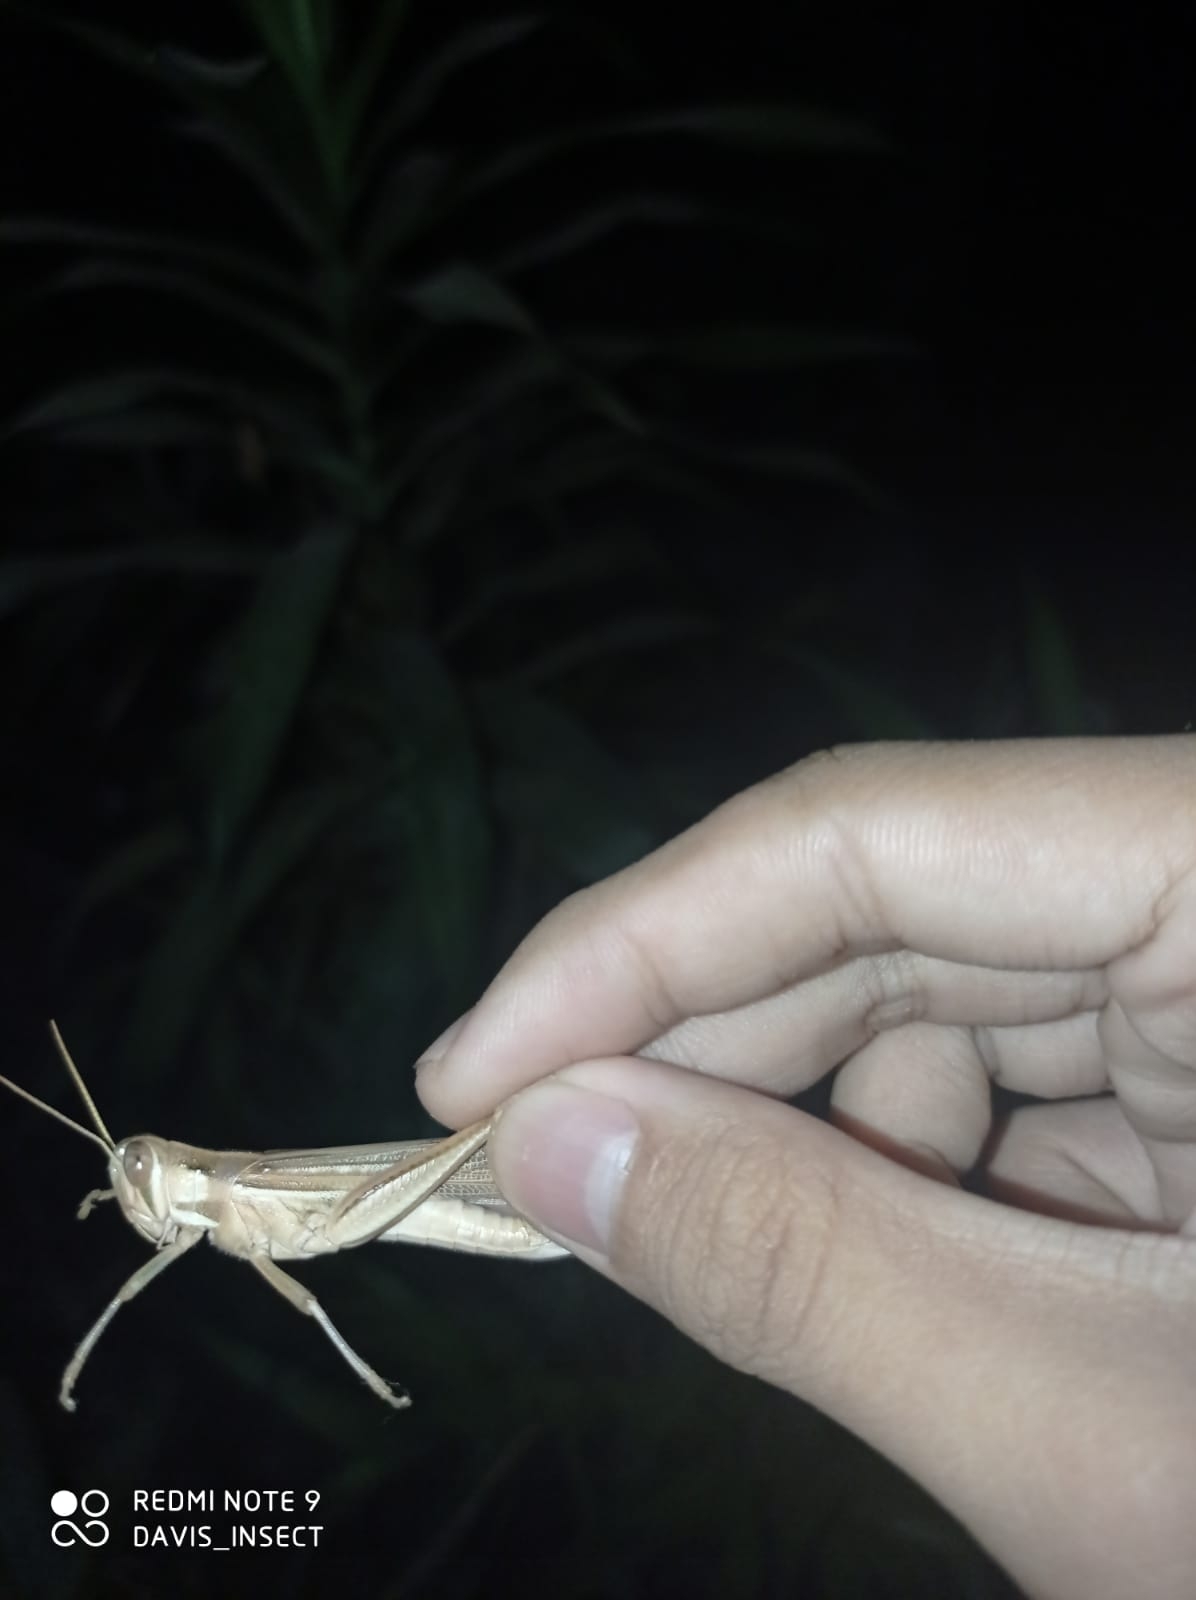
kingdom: Animalia
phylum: Arthropoda
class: Insecta
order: Orthoptera
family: Acrididae
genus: Austracris
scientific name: Austracris guttulosa
